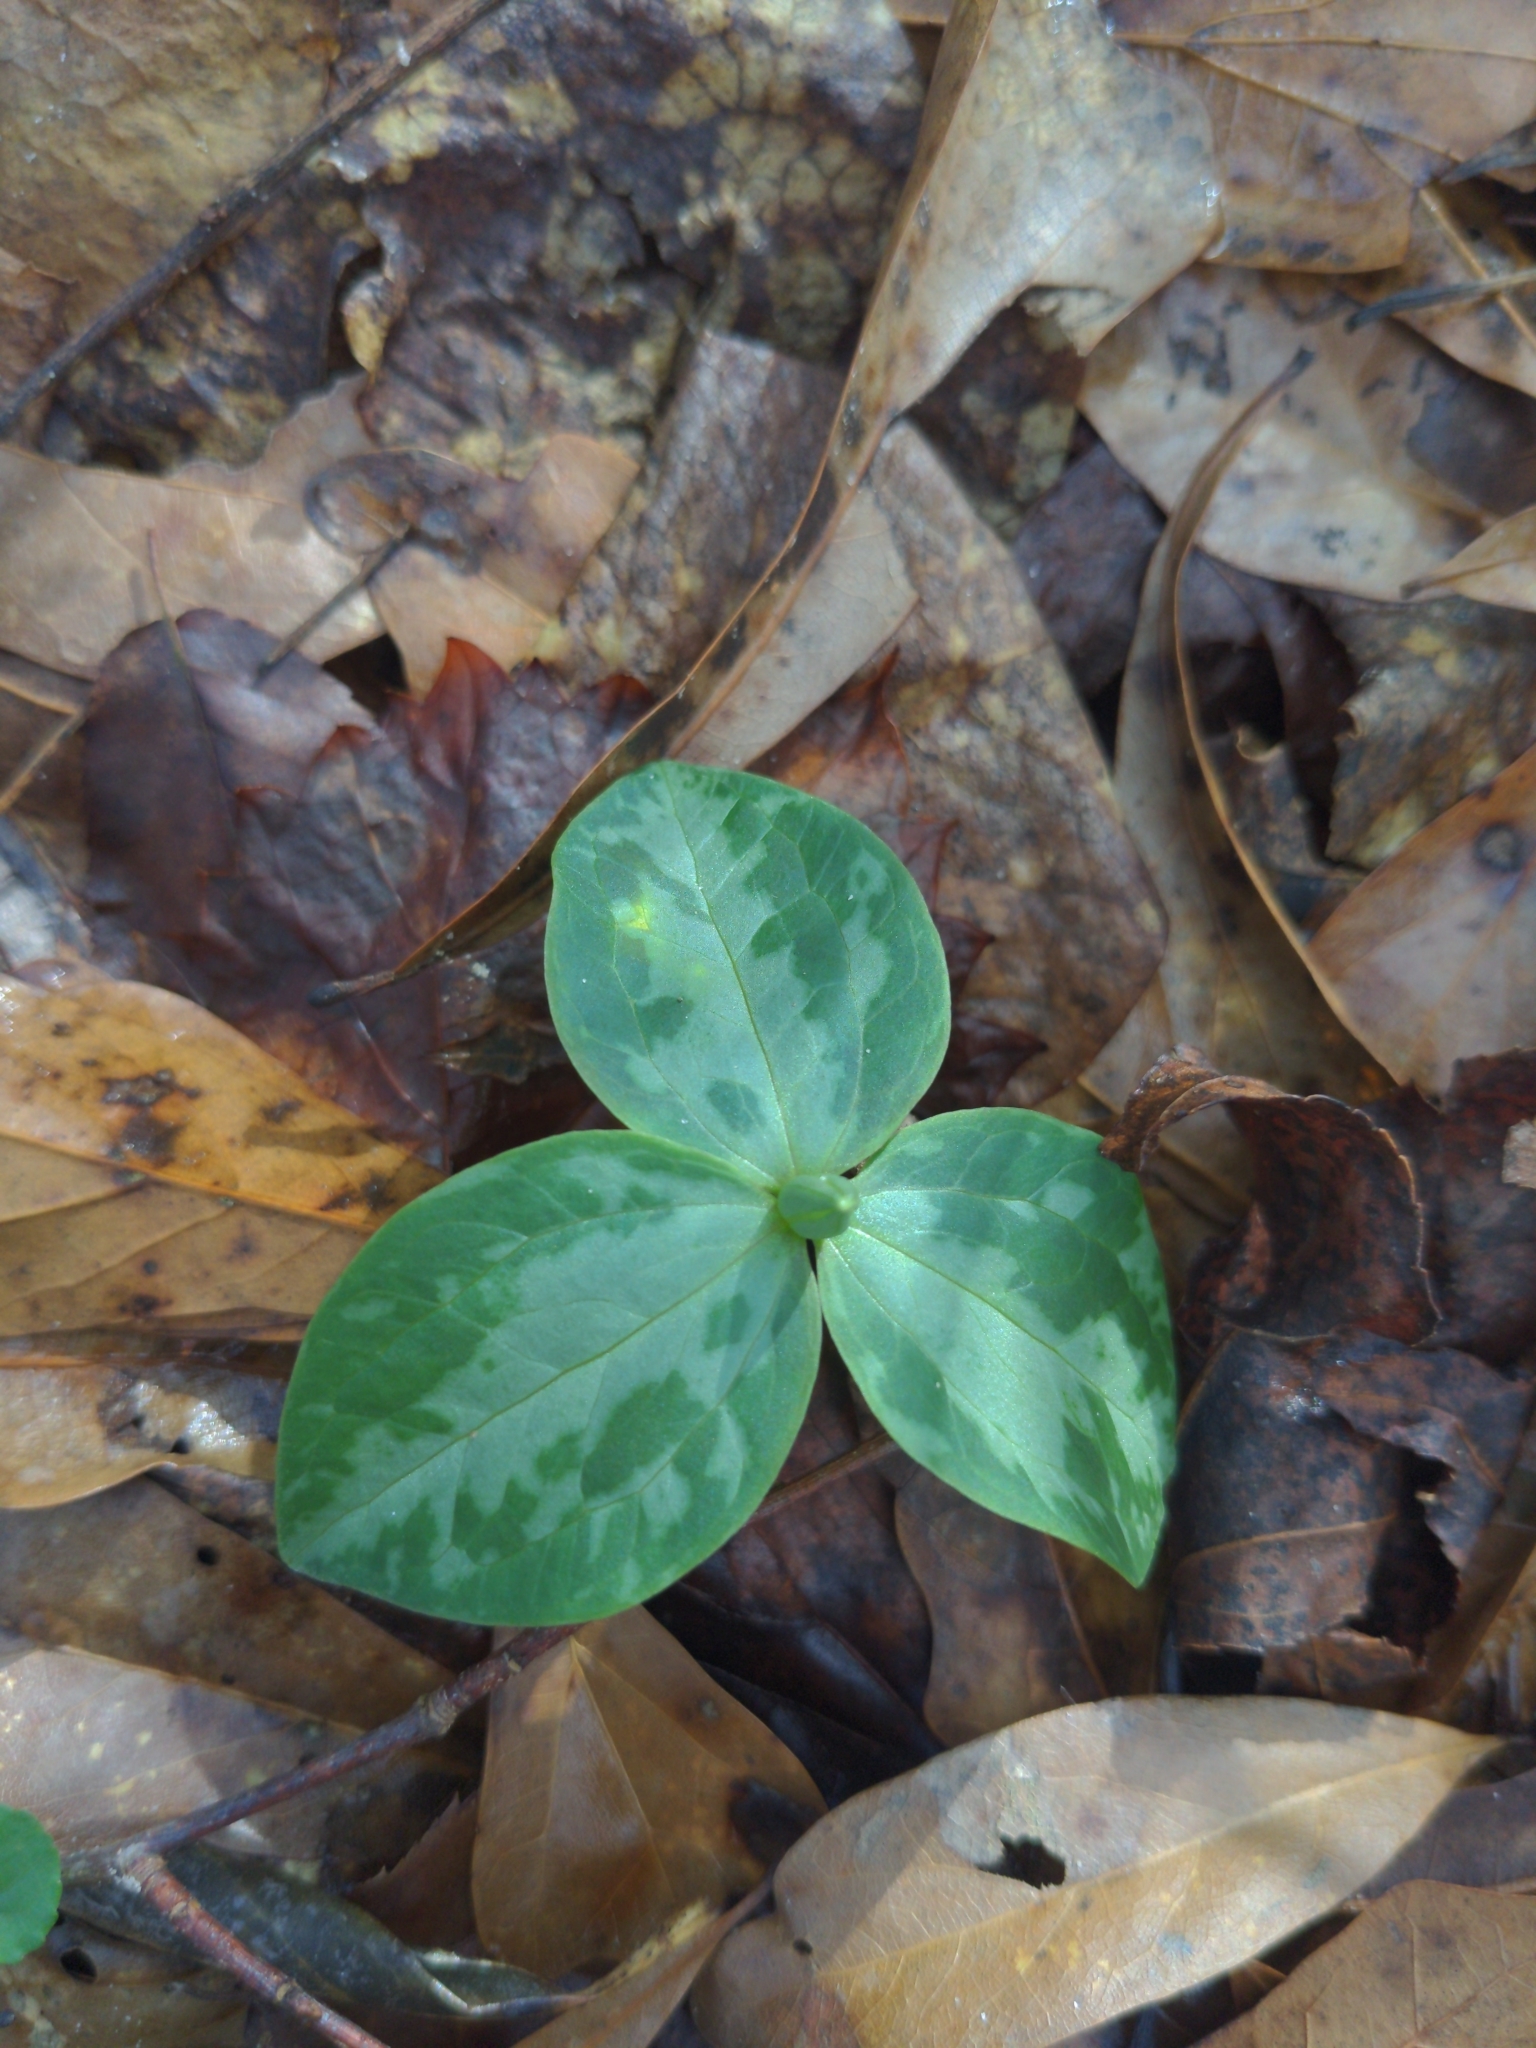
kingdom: Plantae
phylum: Tracheophyta
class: Liliopsida
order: Liliales
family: Melanthiaceae
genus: Trillium
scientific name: Trillium foetidissimum
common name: Mississippi river trillium
